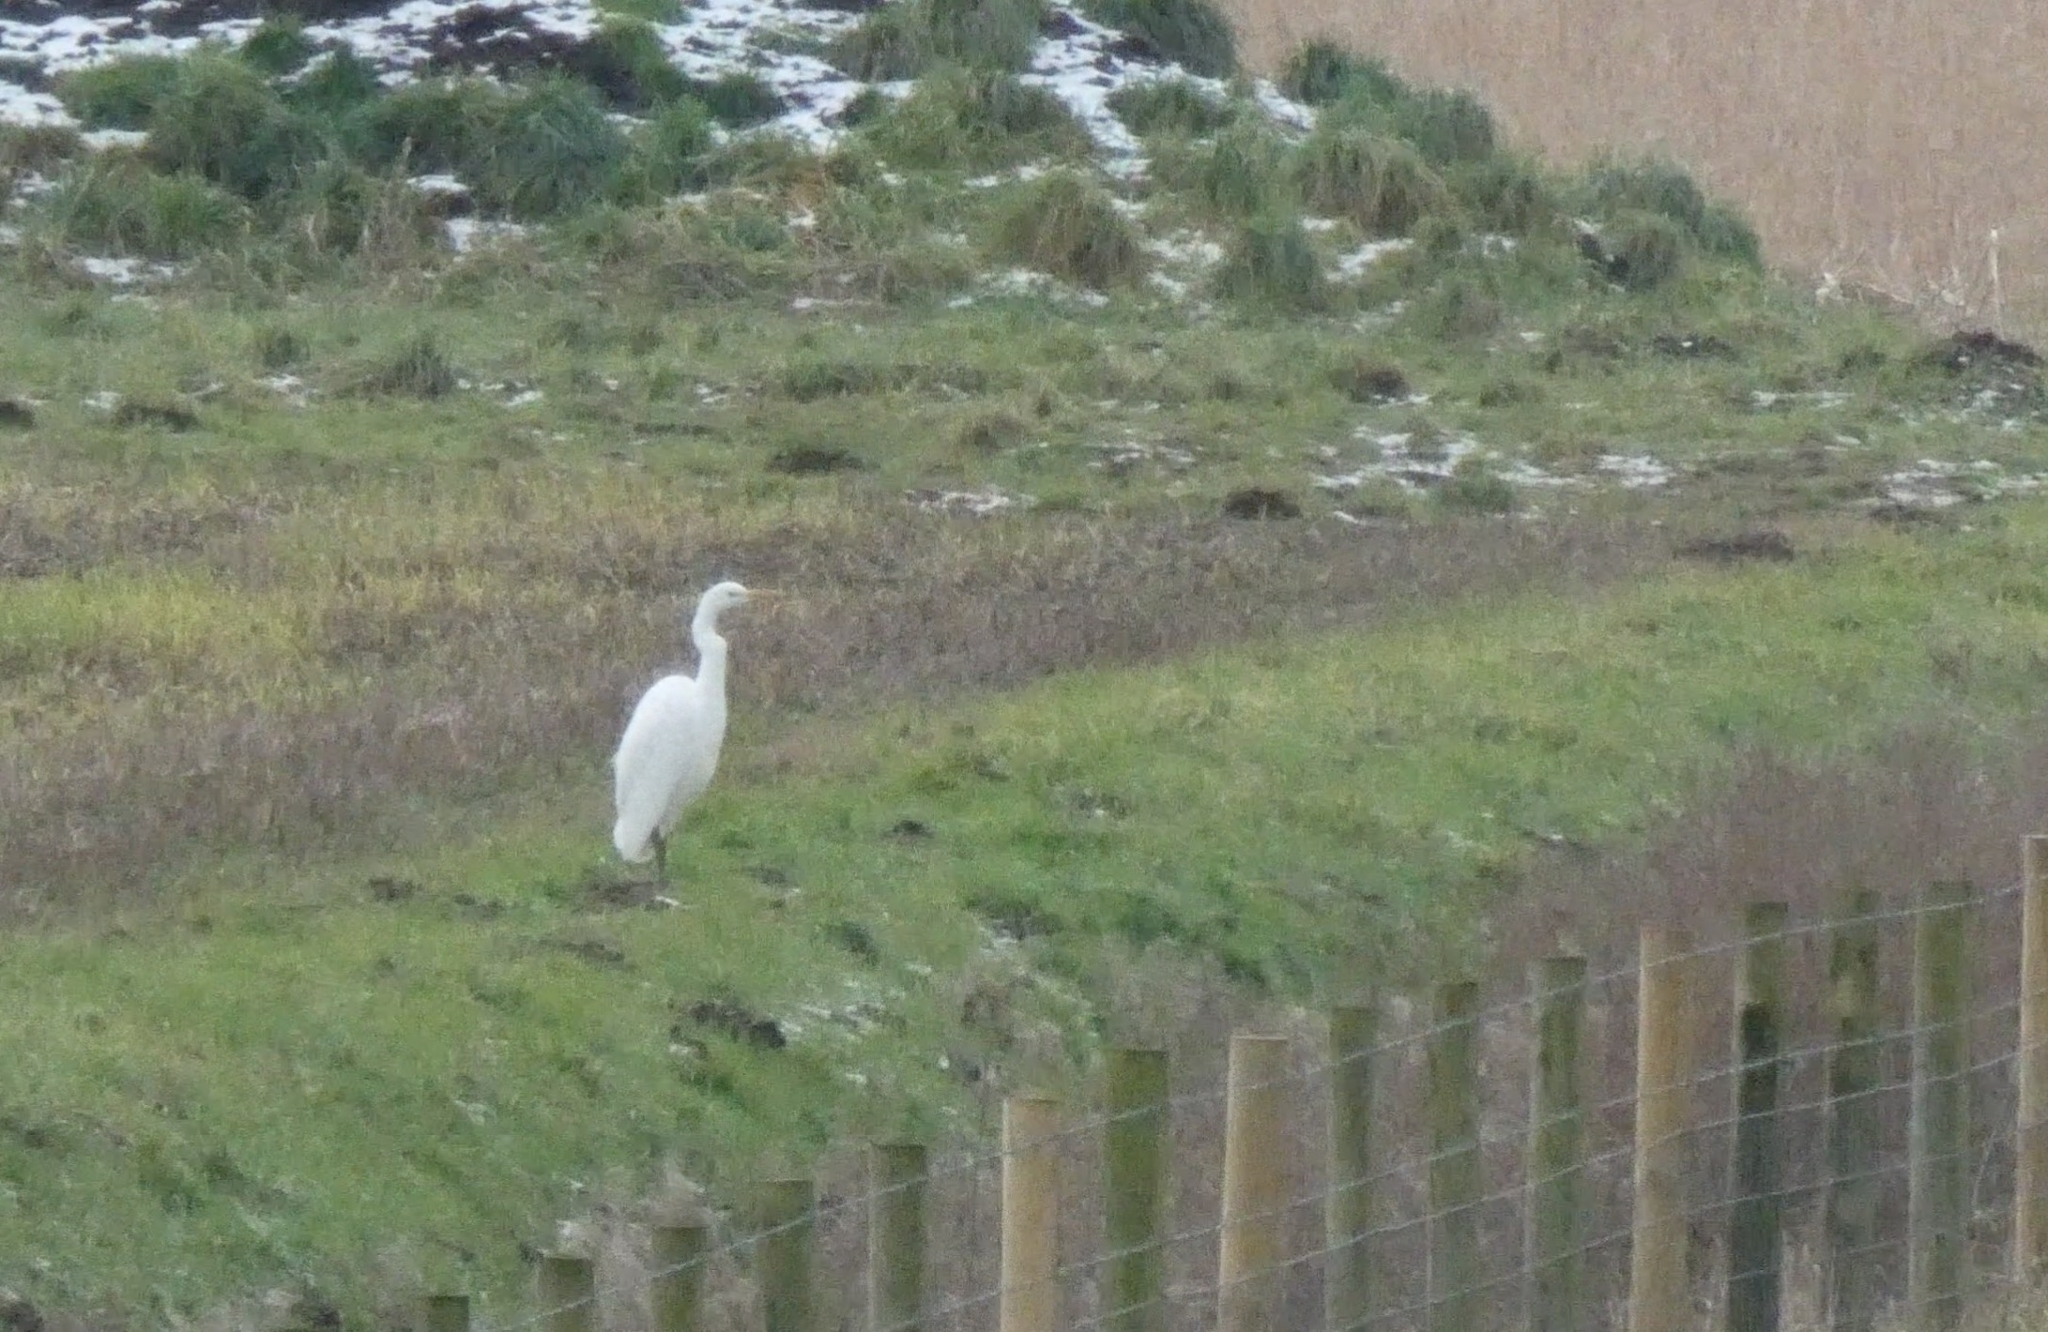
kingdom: Animalia
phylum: Chordata
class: Aves
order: Pelecaniformes
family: Ardeidae
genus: Ardea
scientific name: Ardea alba
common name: Great egret
